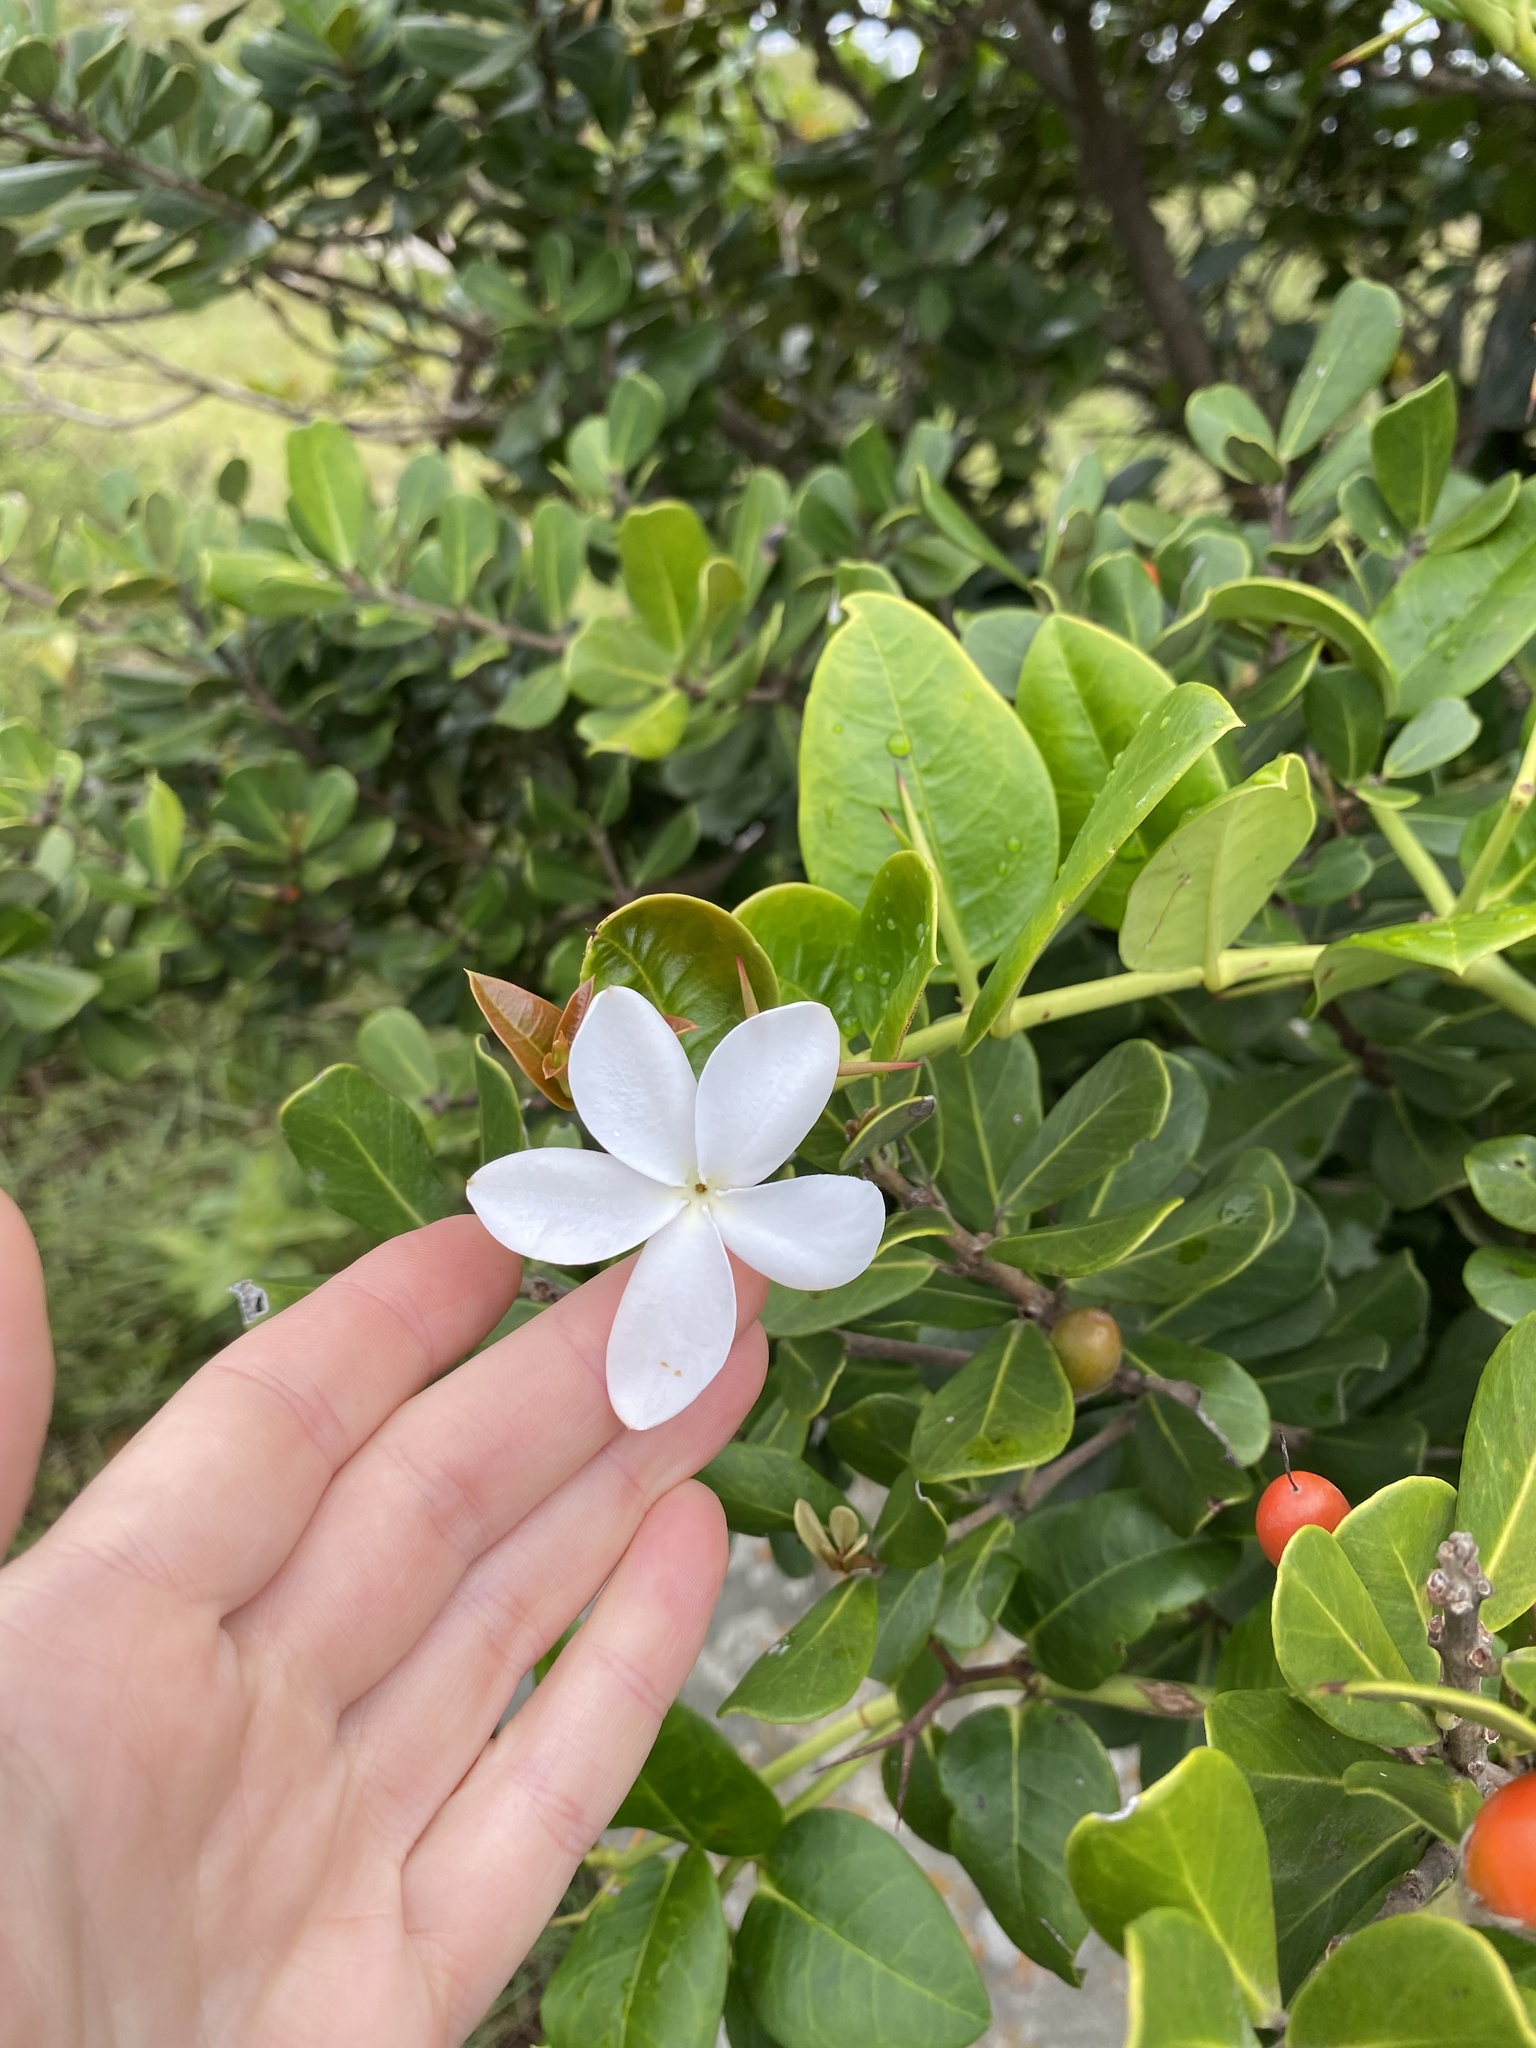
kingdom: Plantae
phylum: Tracheophyta
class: Magnoliopsida
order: Gentianales
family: Apocynaceae
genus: Carissa
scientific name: Carissa macrocarpa
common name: Natal plum
